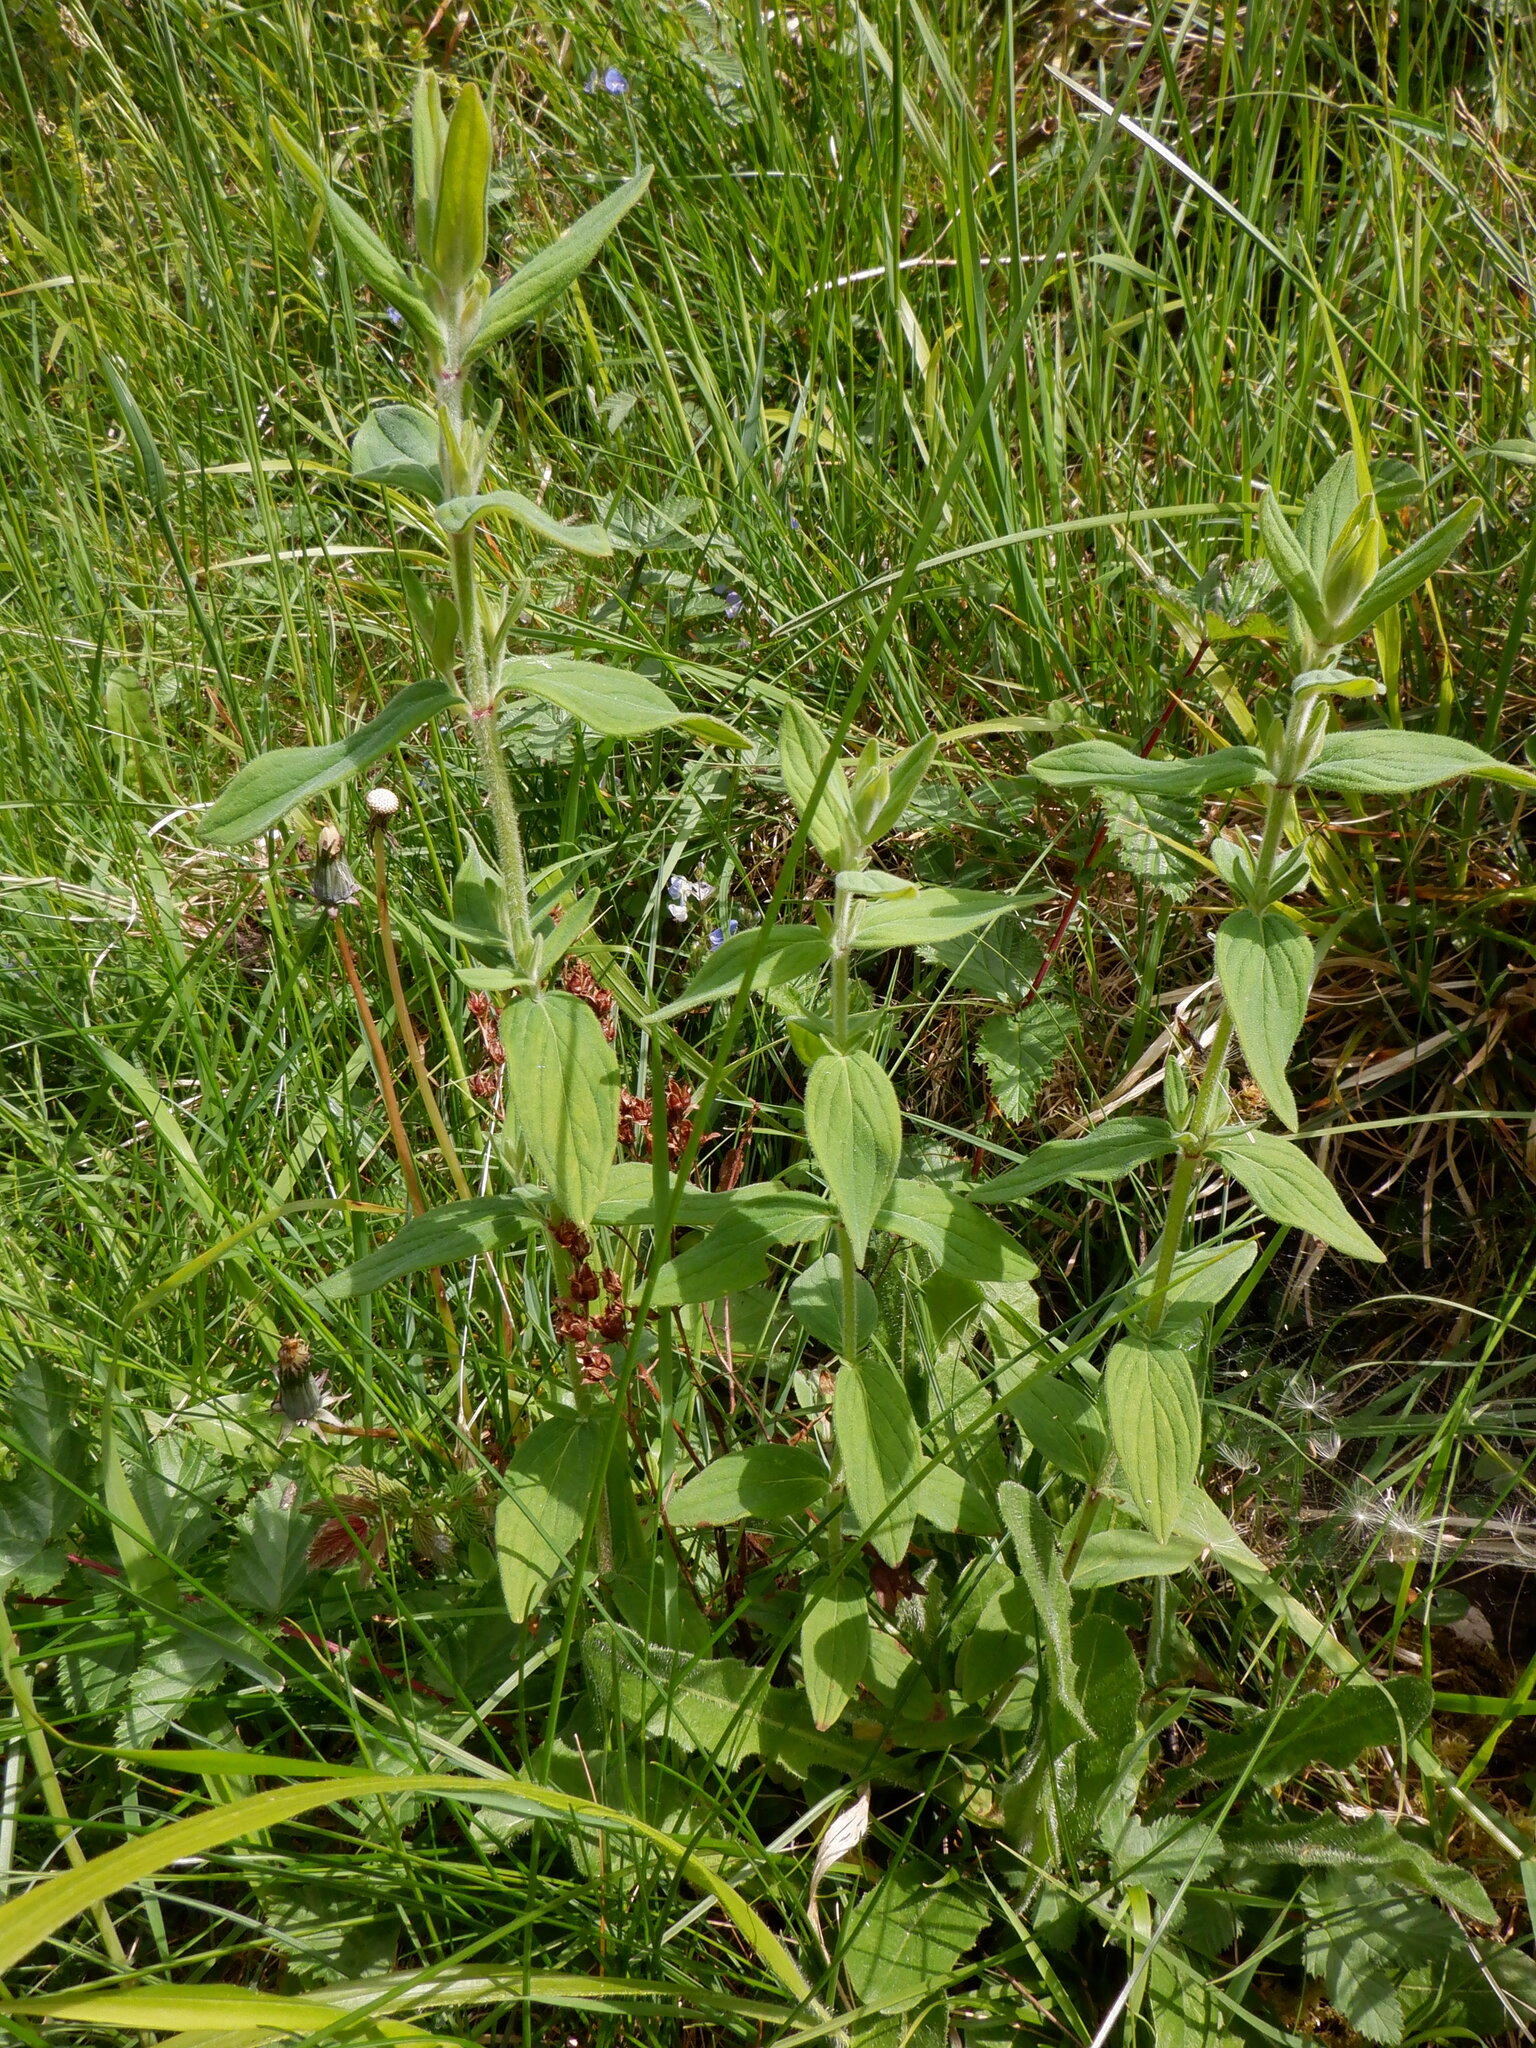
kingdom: Plantae
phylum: Tracheophyta
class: Magnoliopsida
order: Malpighiales
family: Hypericaceae
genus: Hypericum
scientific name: Hypericum hirsutum
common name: Hairy st. john's-wort
